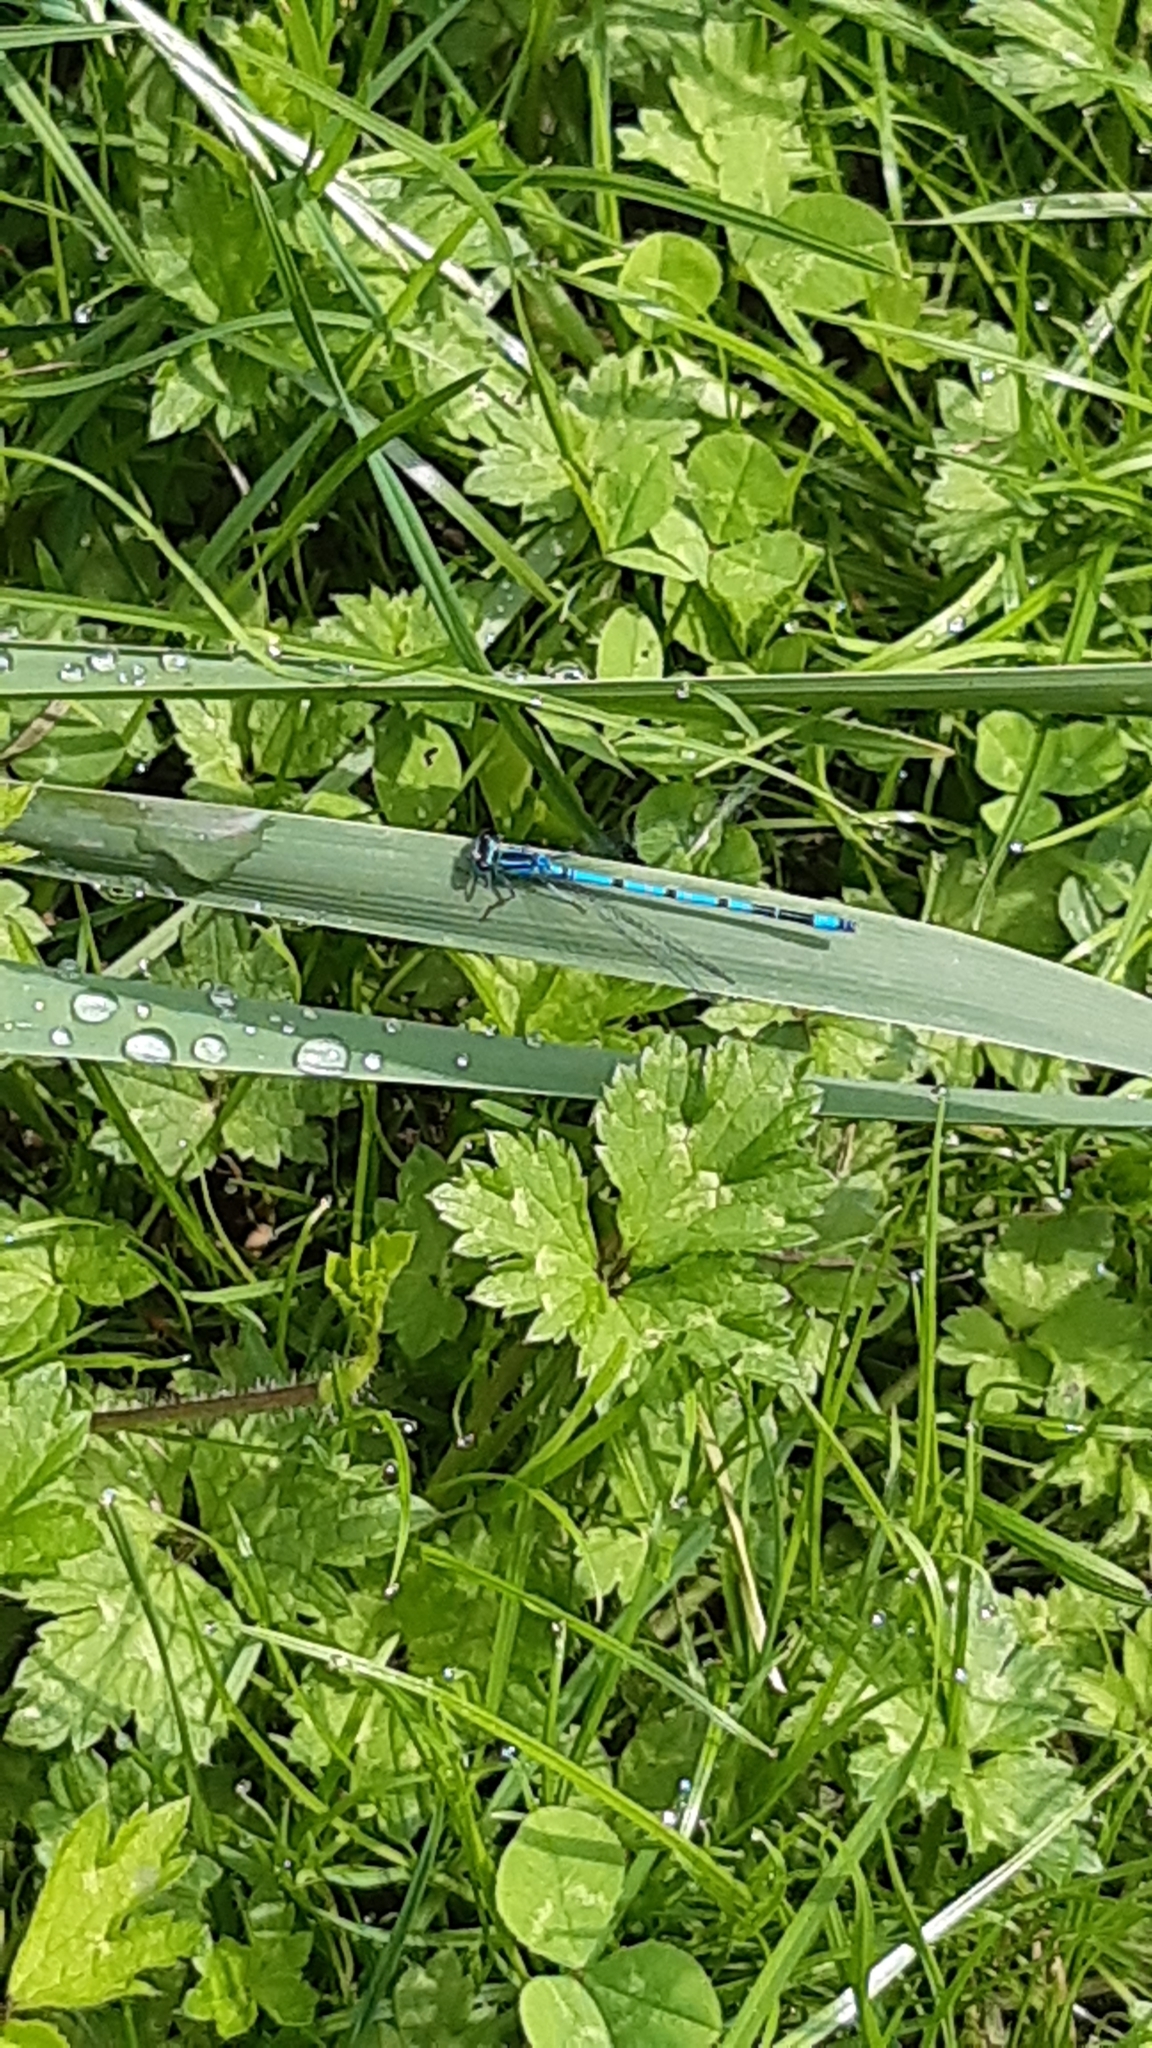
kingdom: Animalia
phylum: Arthropoda
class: Insecta
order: Odonata
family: Coenagrionidae
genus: Coenagrion
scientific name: Coenagrion puella
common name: Azure damselfly
